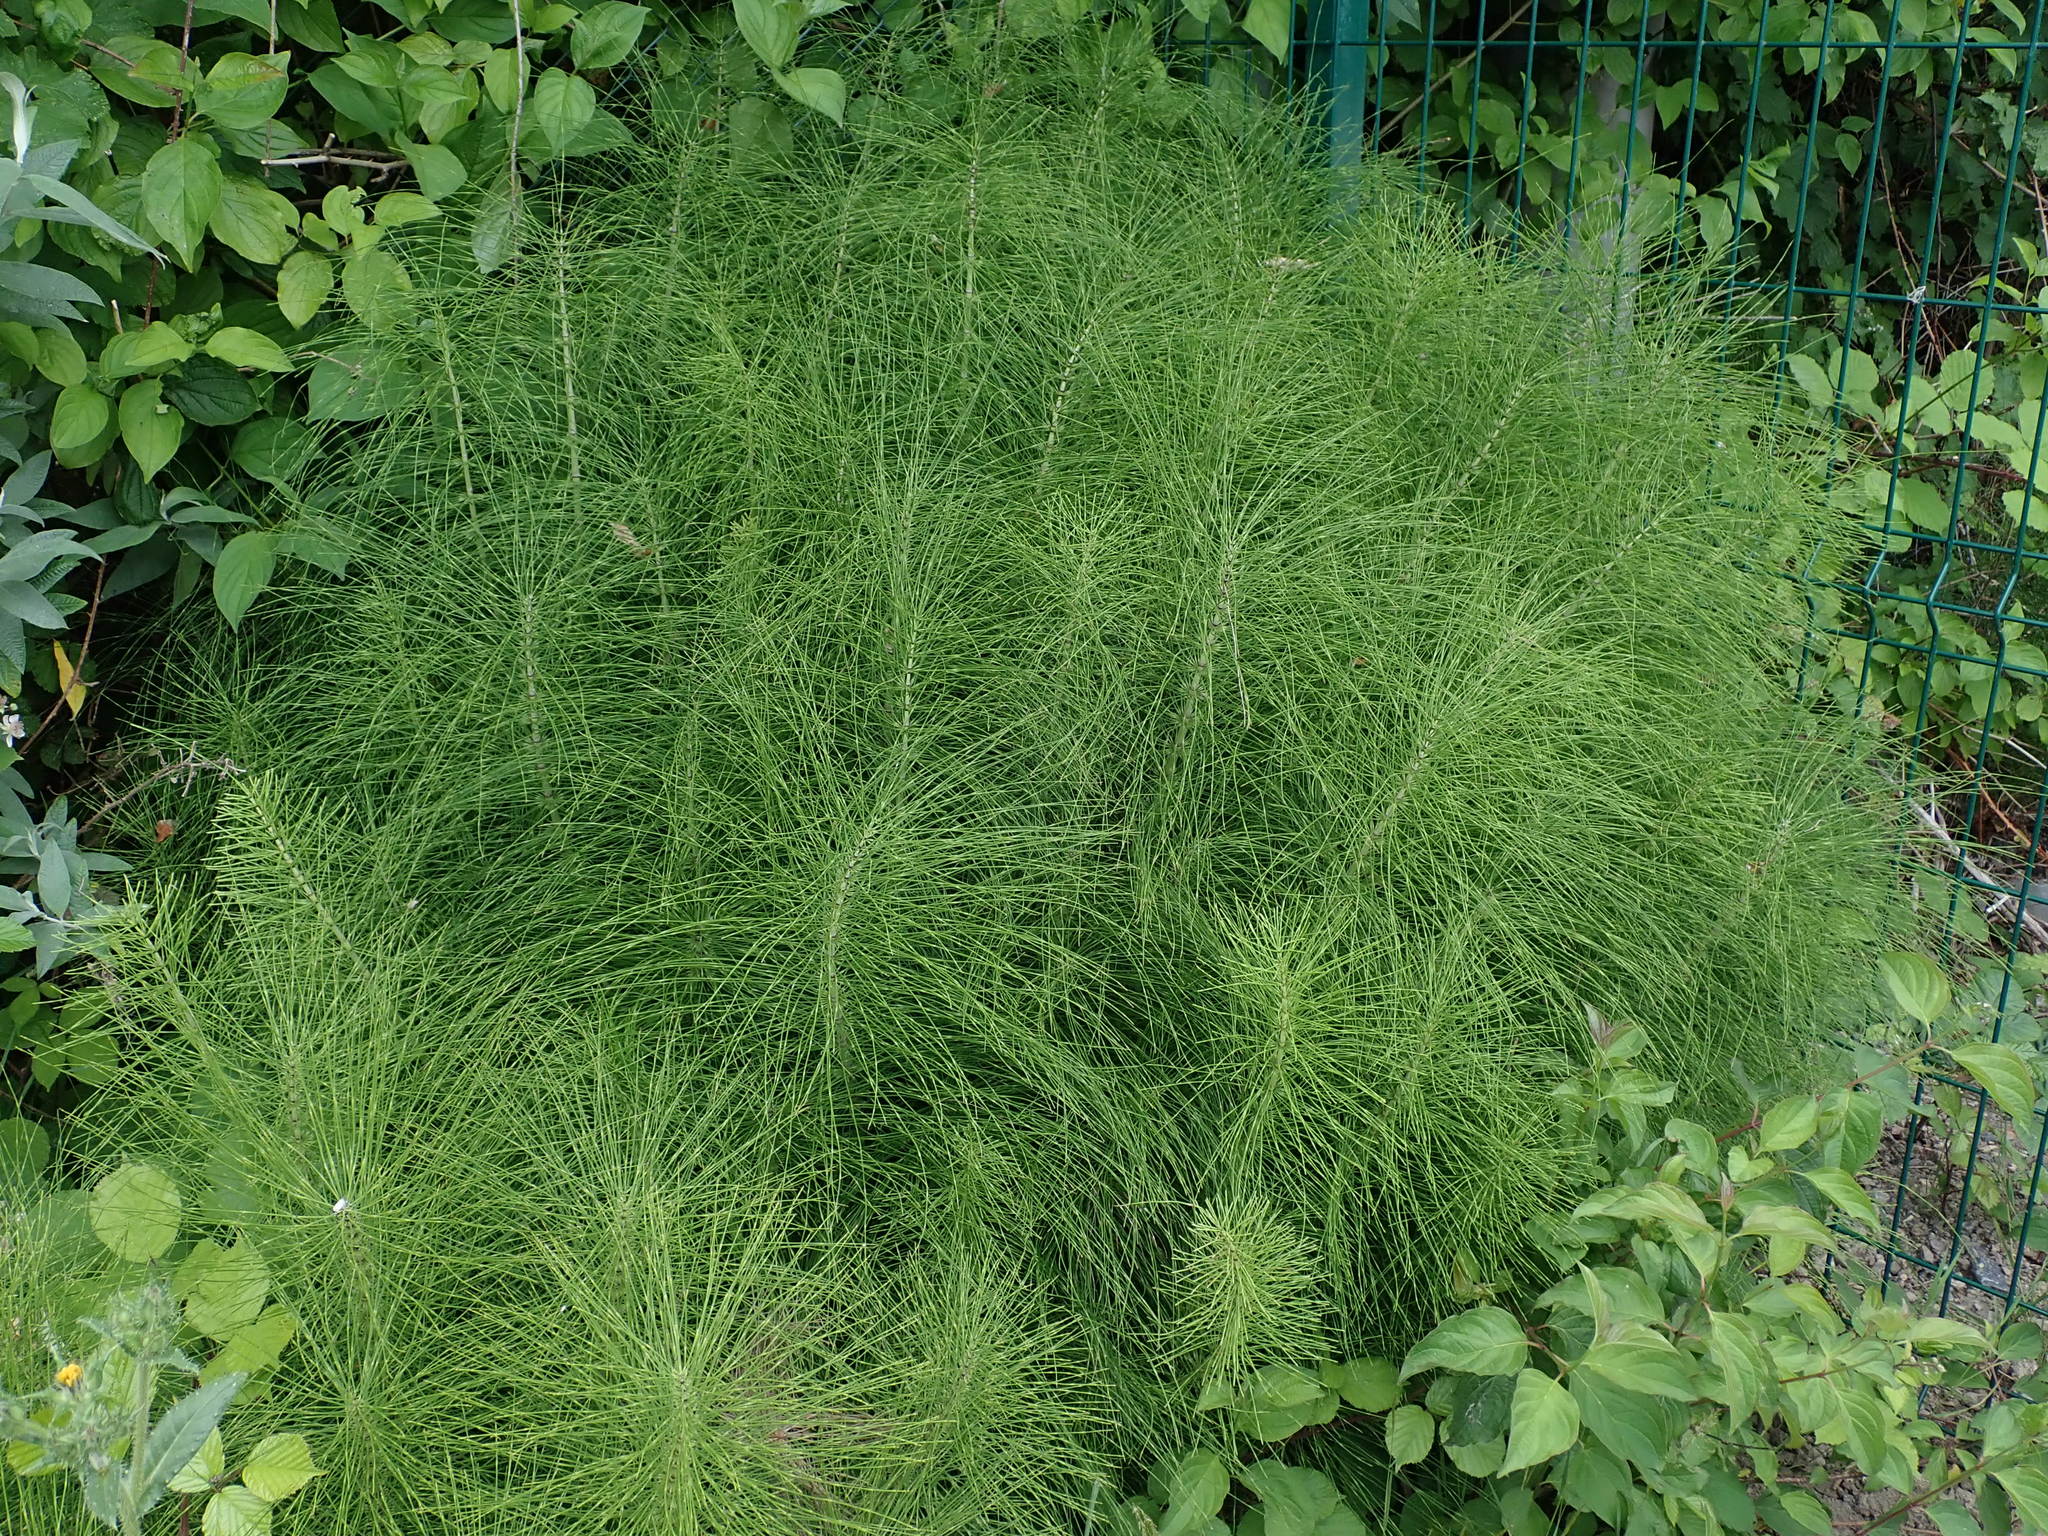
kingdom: Plantae
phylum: Tracheophyta
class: Polypodiopsida
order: Equisetales
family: Equisetaceae
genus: Equisetum
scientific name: Equisetum telmateia
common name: Great horsetail
